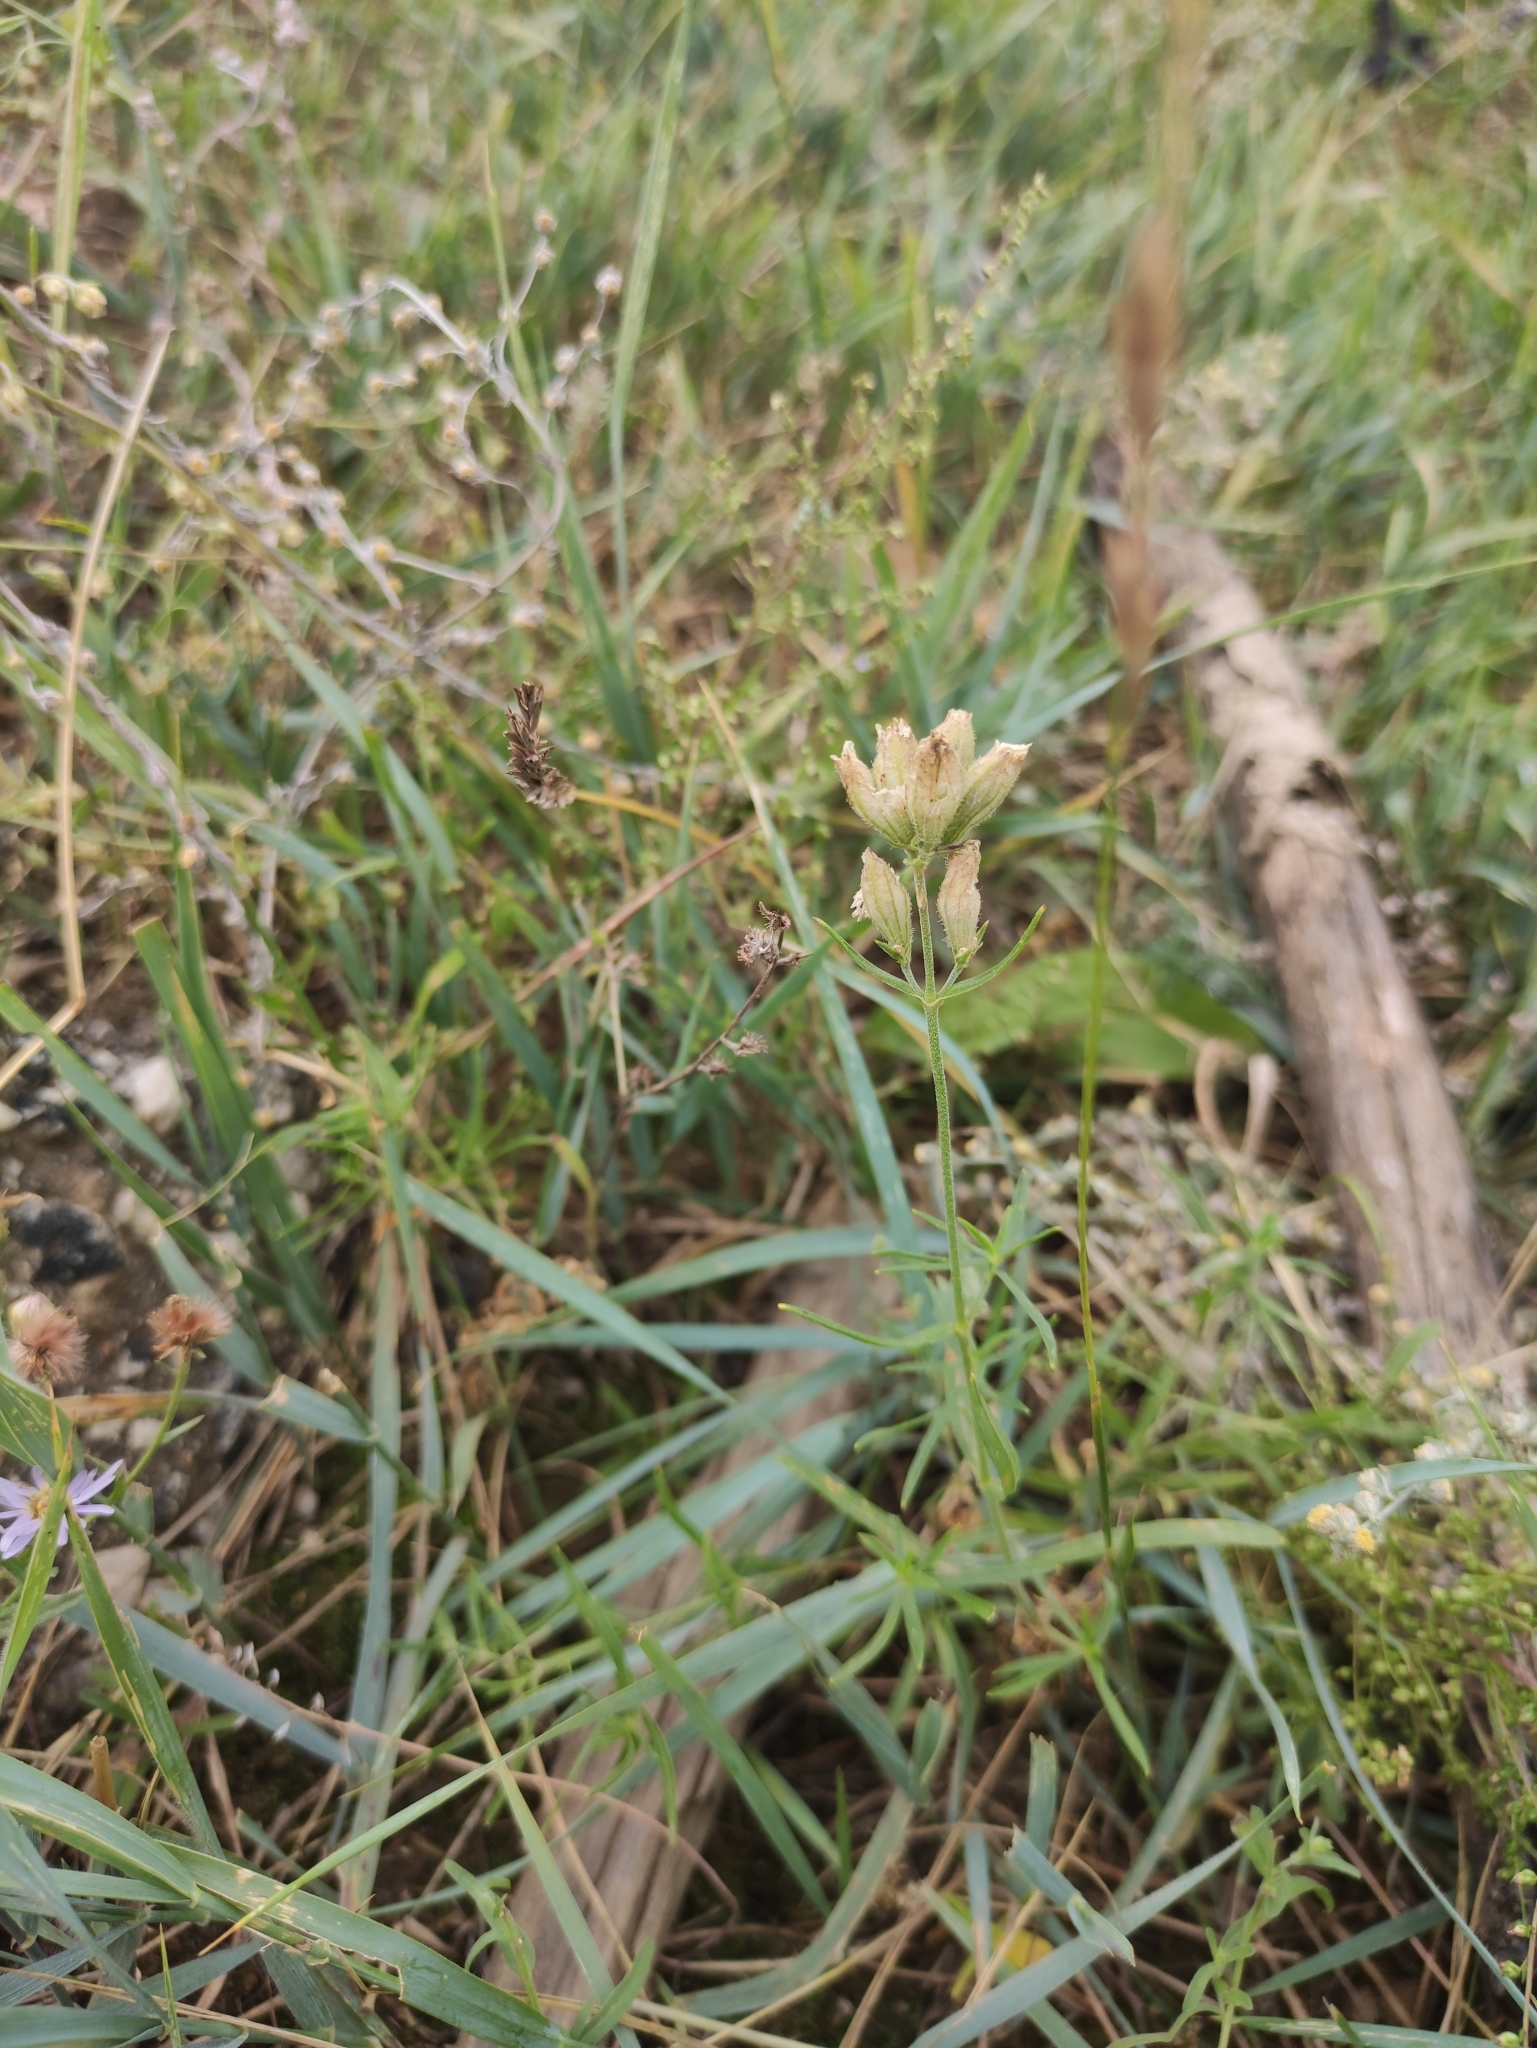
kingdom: Plantae
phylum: Tracheophyta
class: Magnoliopsida
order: Caryophyllales
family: Caryophyllaceae
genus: Silene
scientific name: Silene amoena
